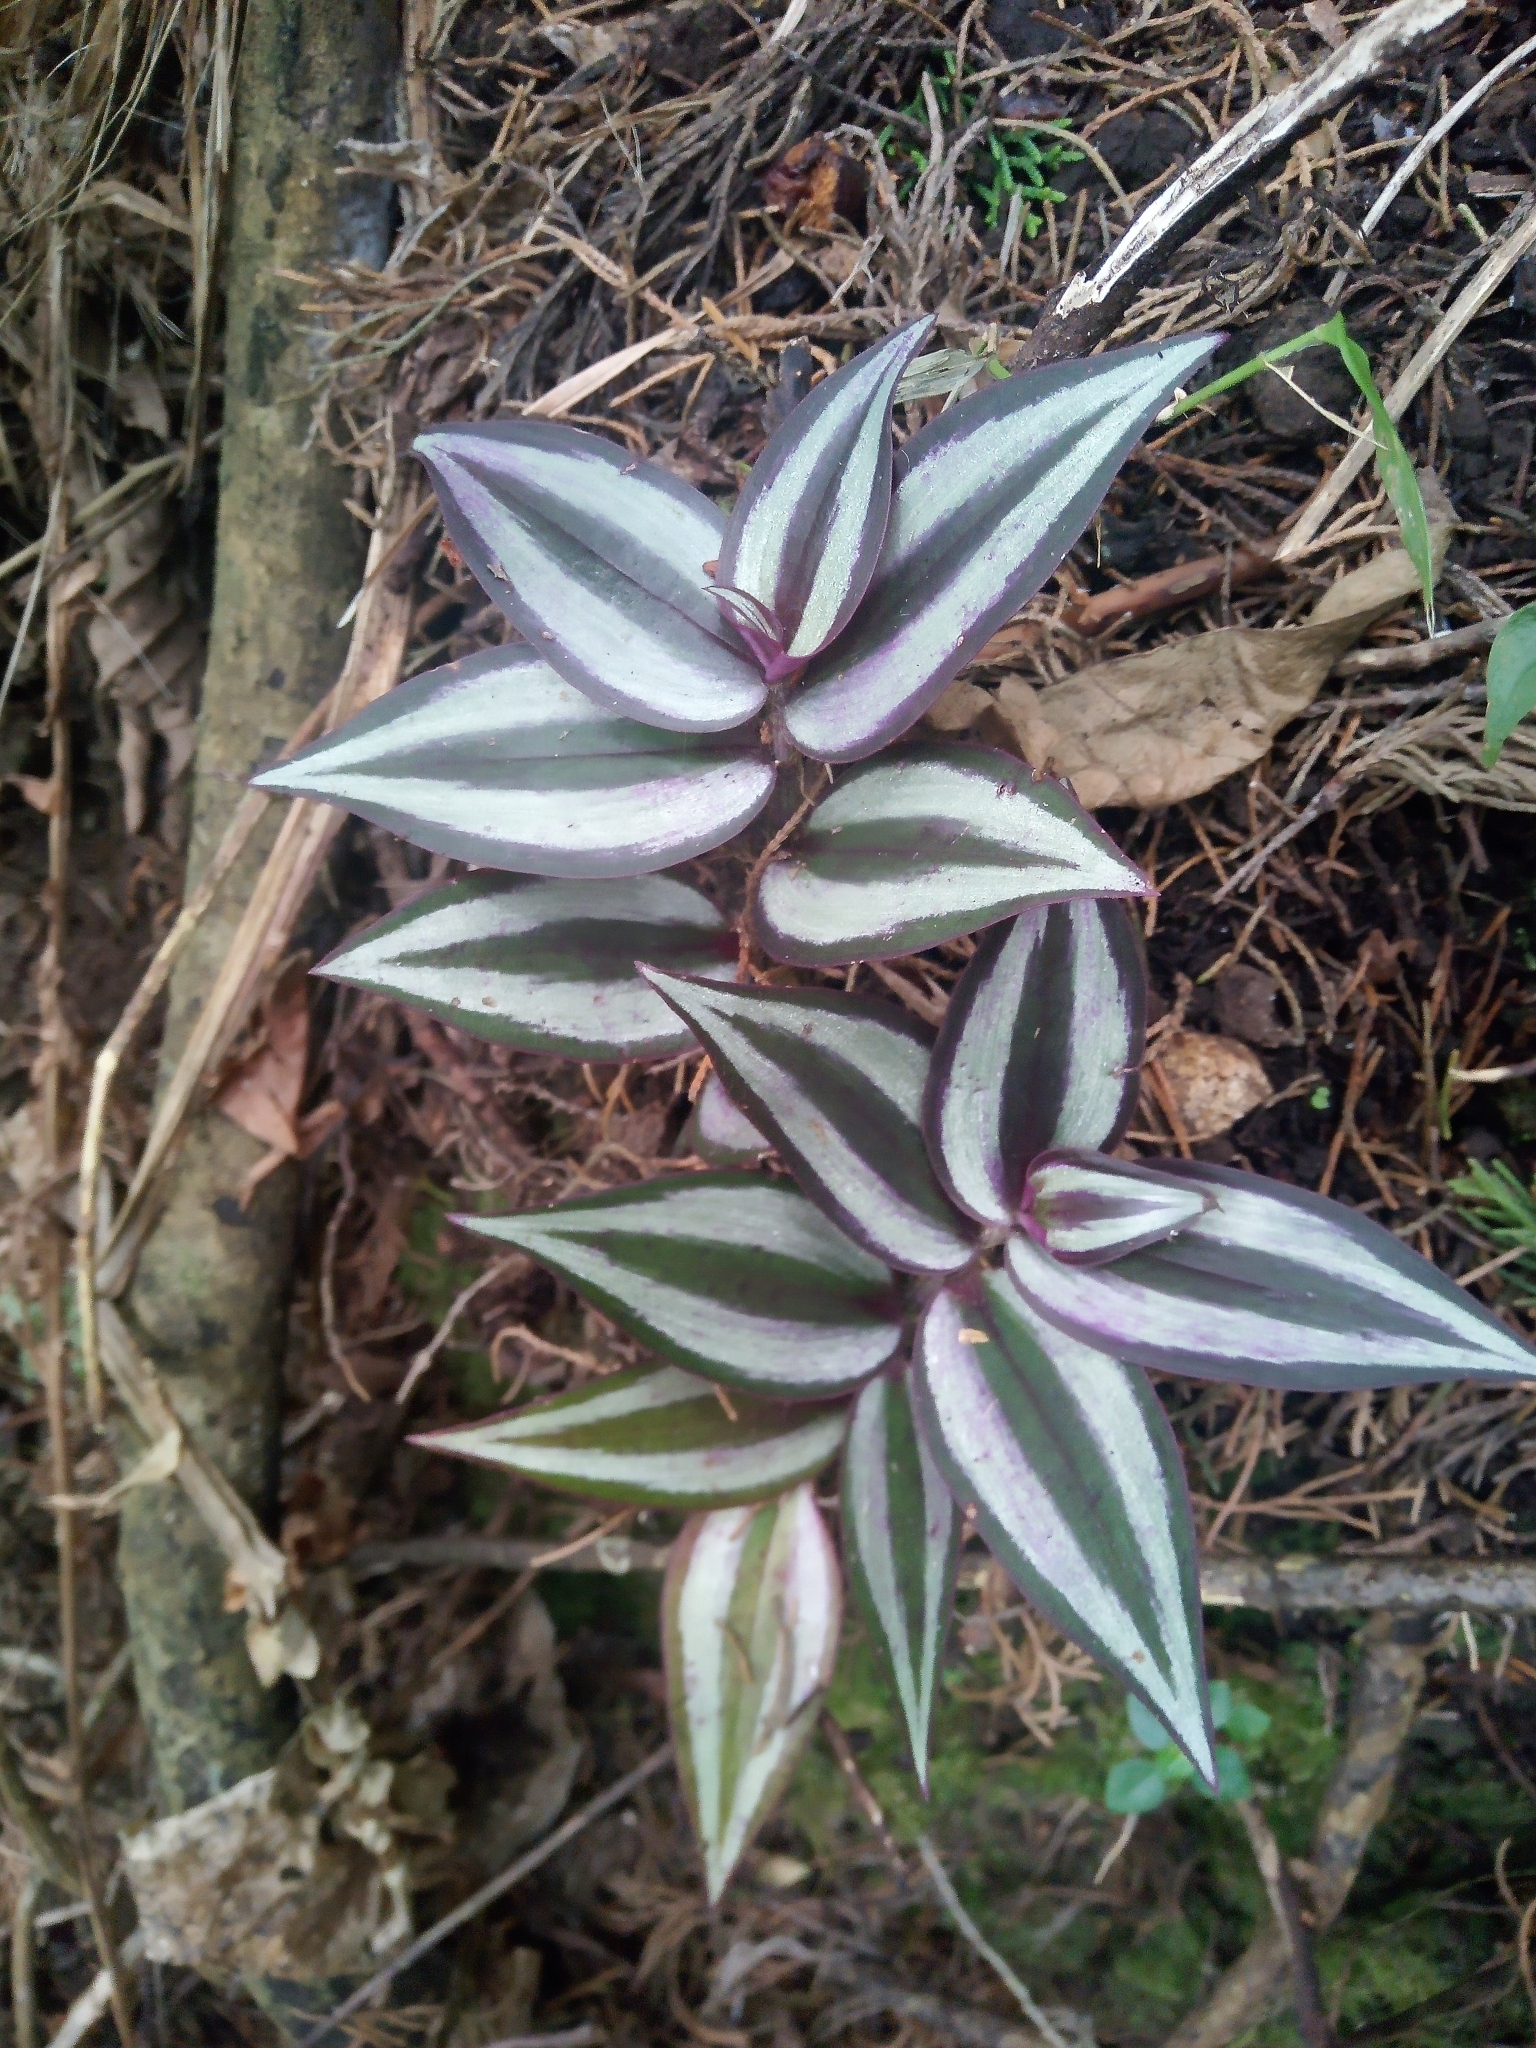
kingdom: Plantae
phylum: Tracheophyta
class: Liliopsida
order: Commelinales
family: Commelinaceae
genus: Tradescantia
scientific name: Tradescantia zebrina
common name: Inchplant
